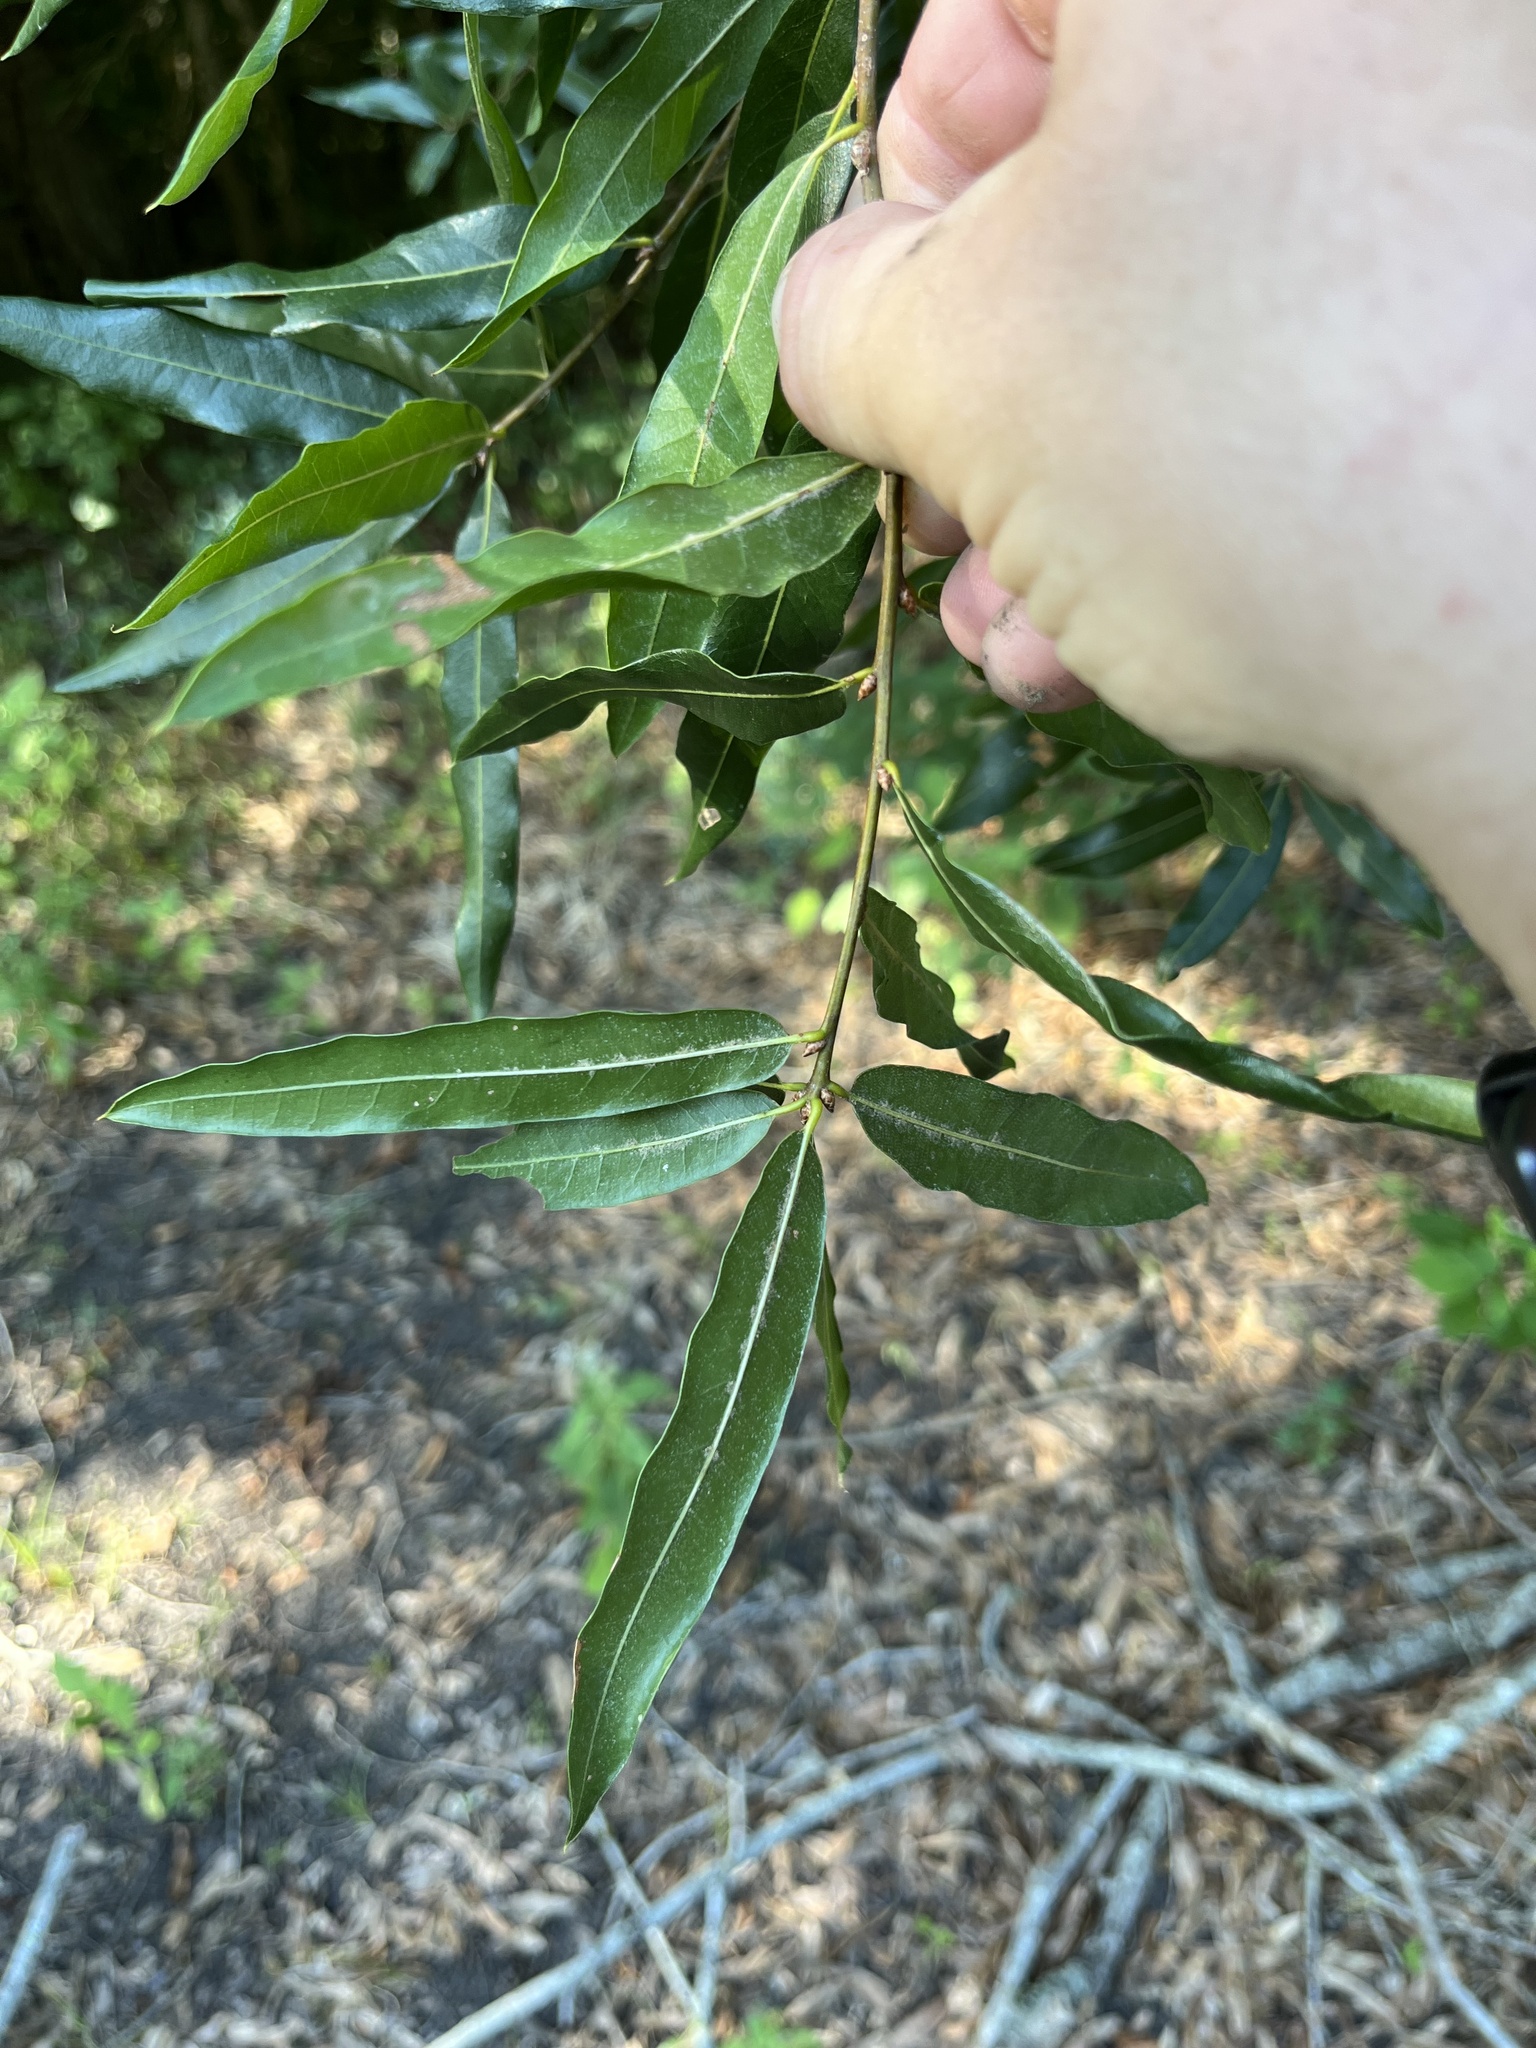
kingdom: Plantae
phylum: Tracheophyta
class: Magnoliopsida
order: Fagales
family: Fagaceae
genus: Quercus
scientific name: Quercus phellos
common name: Willow oak
